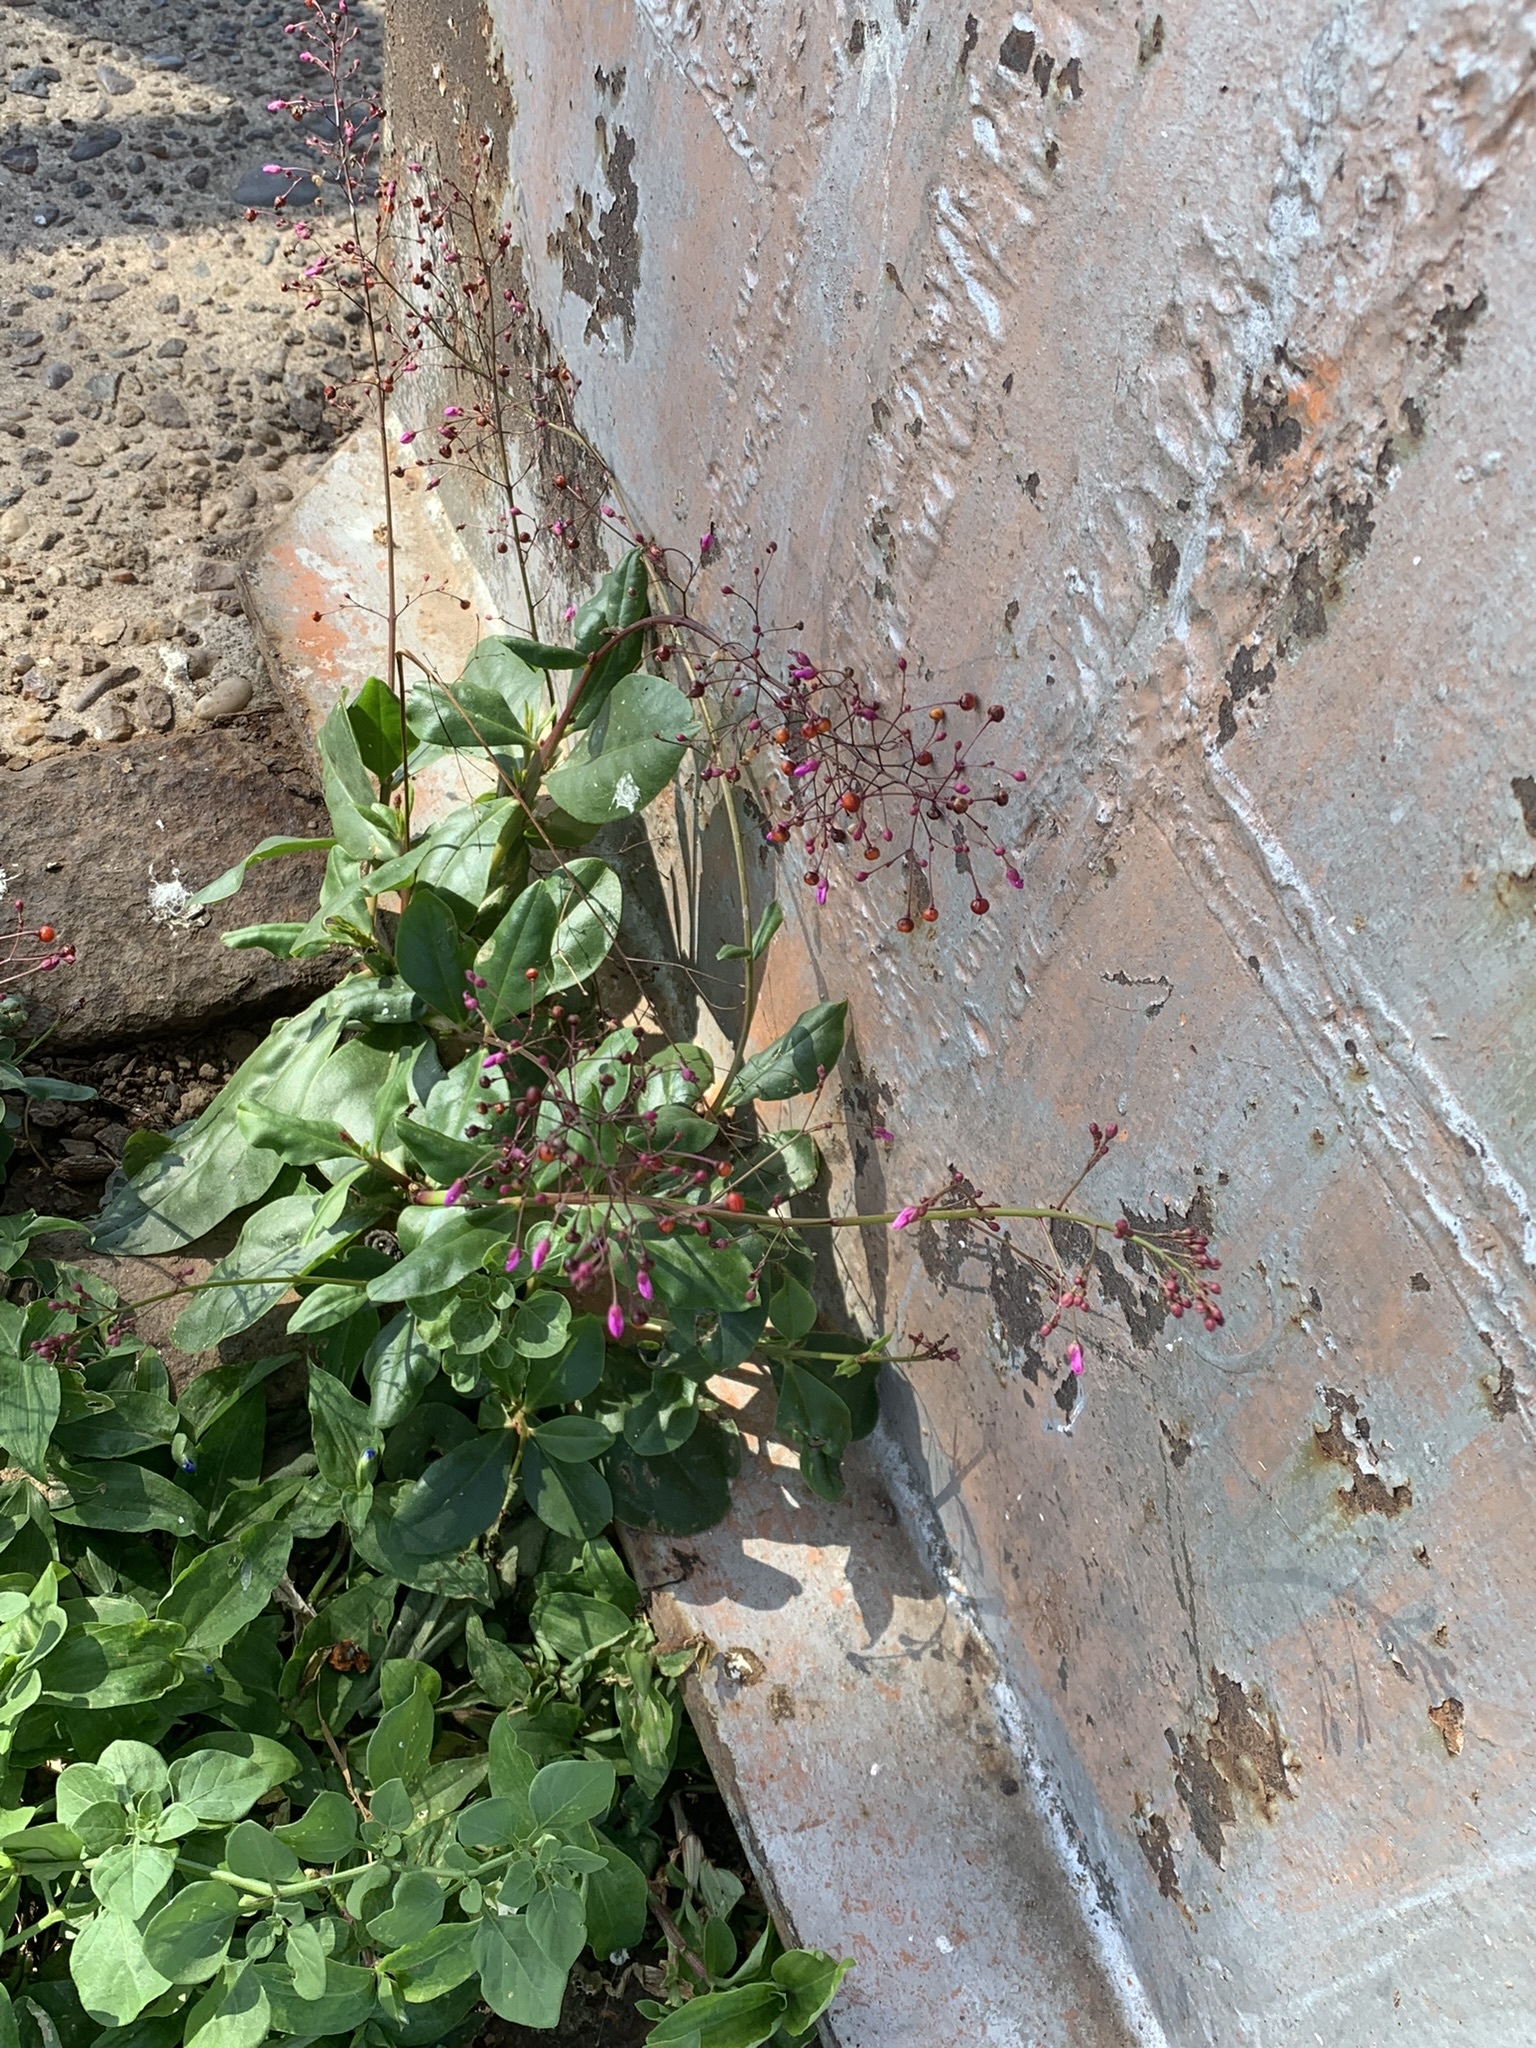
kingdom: Plantae
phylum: Tracheophyta
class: Magnoliopsida
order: Caryophyllales
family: Talinaceae
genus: Talinum
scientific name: Talinum paniculatum
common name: Jewels of opar
